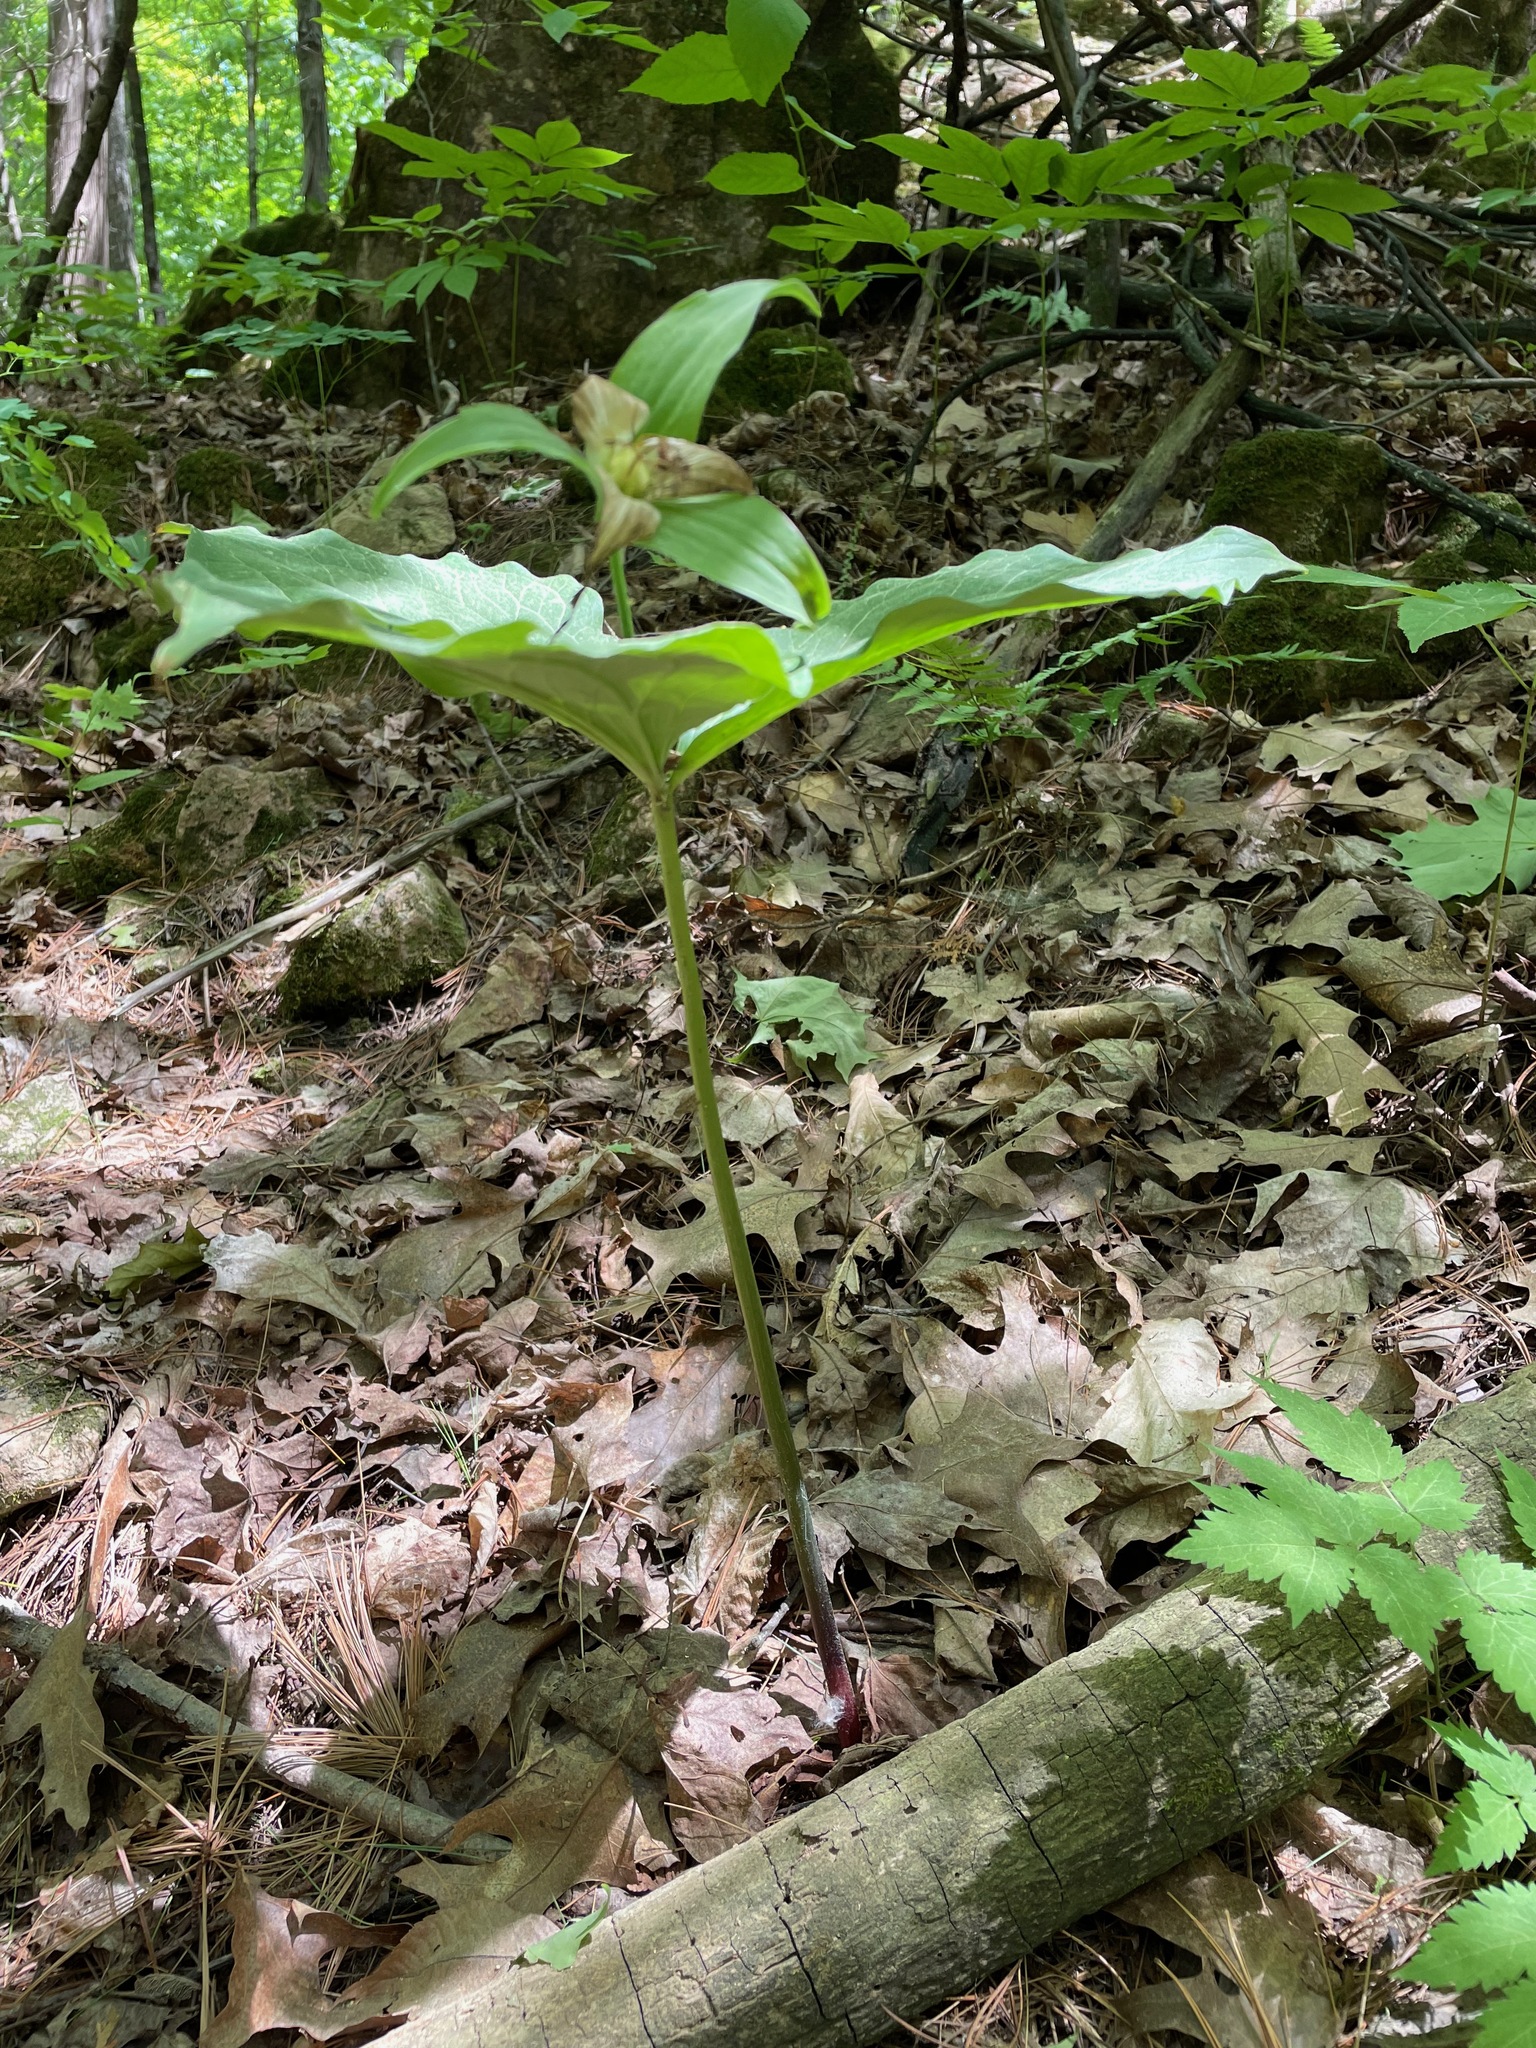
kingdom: Plantae
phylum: Tracheophyta
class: Liliopsida
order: Liliales
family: Melanthiaceae
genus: Trillium
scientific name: Trillium grandiflorum
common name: Great white trillium
